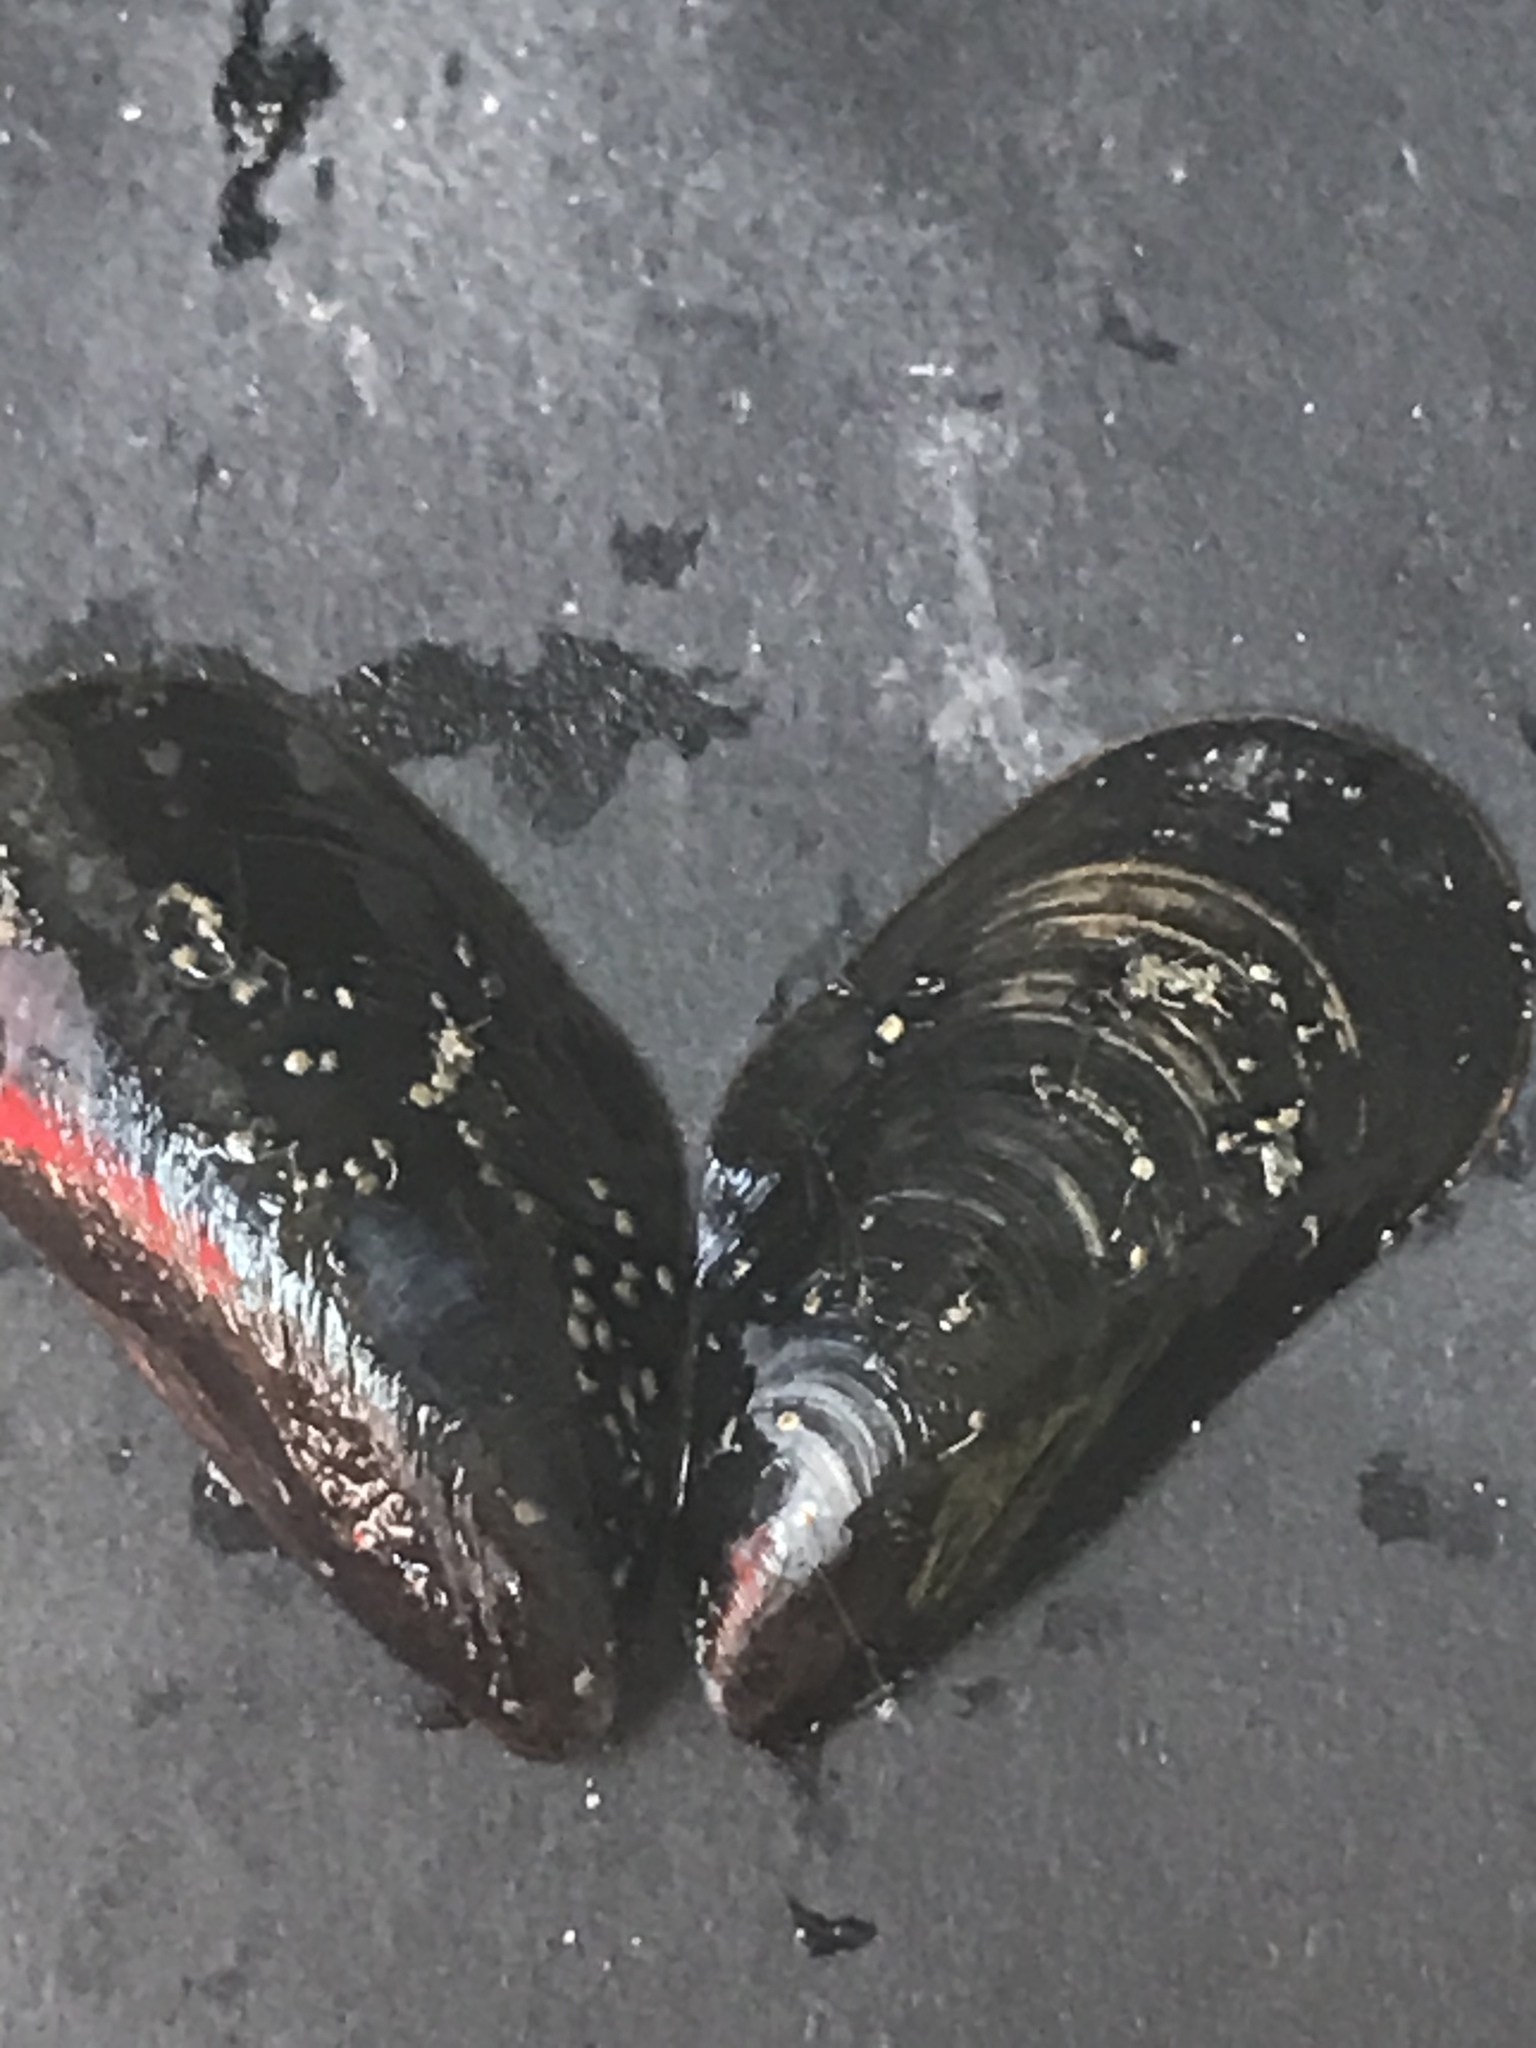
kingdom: Animalia
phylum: Mollusca
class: Bivalvia
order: Mytilida
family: Mytilidae
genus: Mytilus
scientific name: Mytilus
